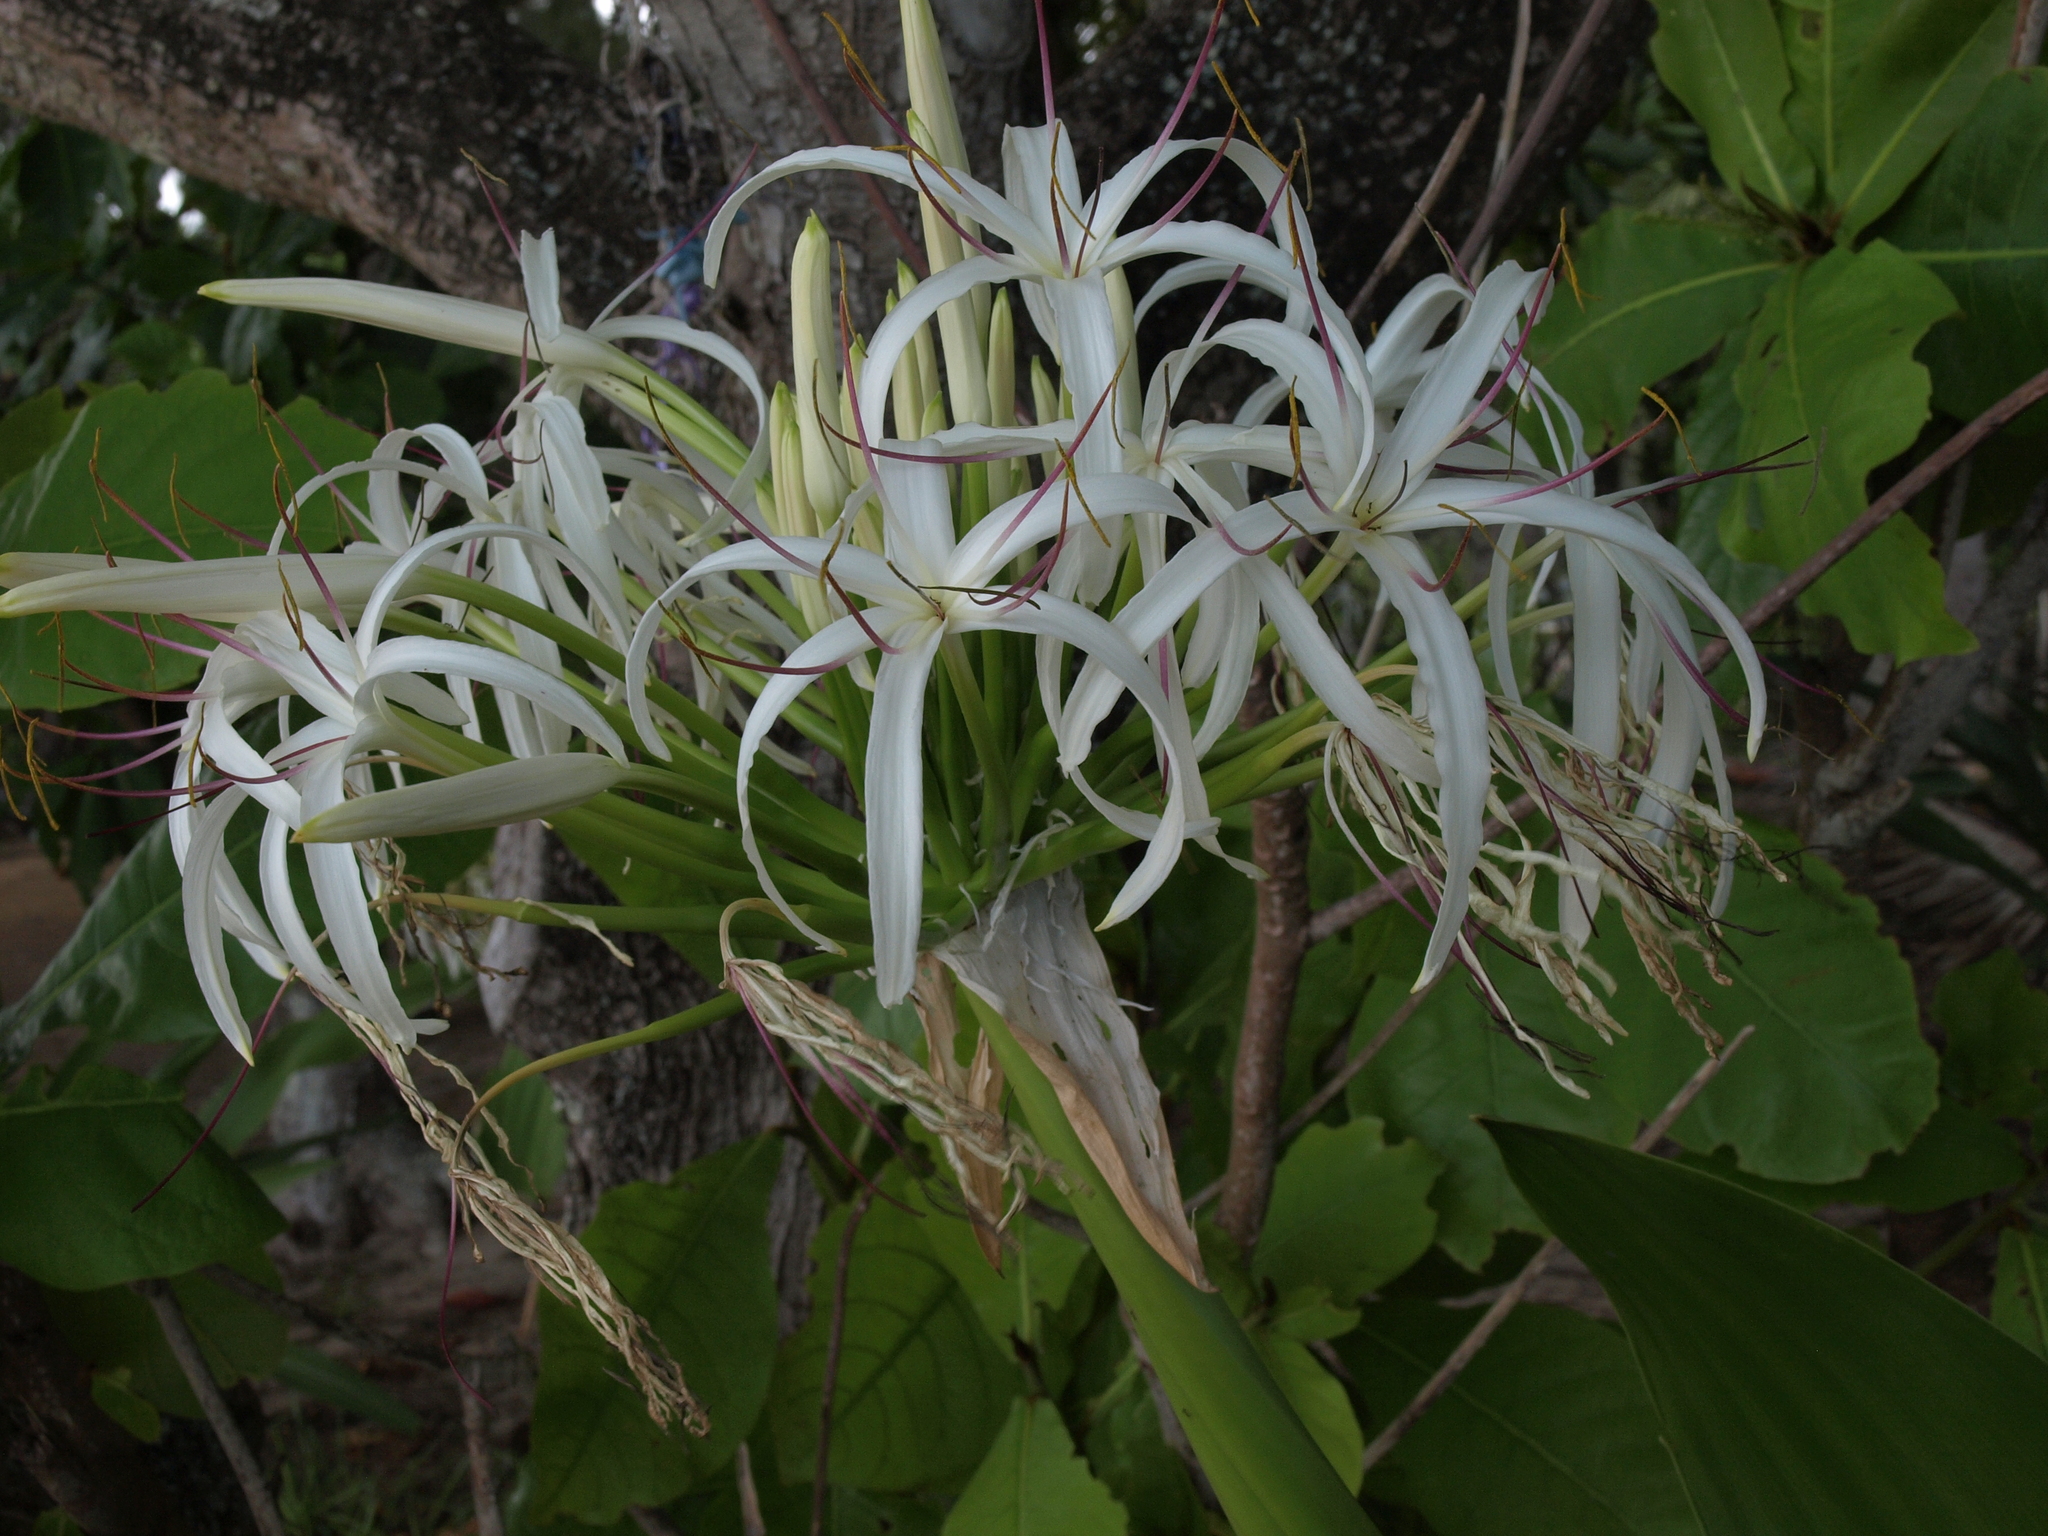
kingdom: Plantae
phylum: Tracheophyta
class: Liliopsida
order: Asparagales
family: Amaryllidaceae
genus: Crinum
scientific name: Crinum asiaticum
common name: Poisonbulb
